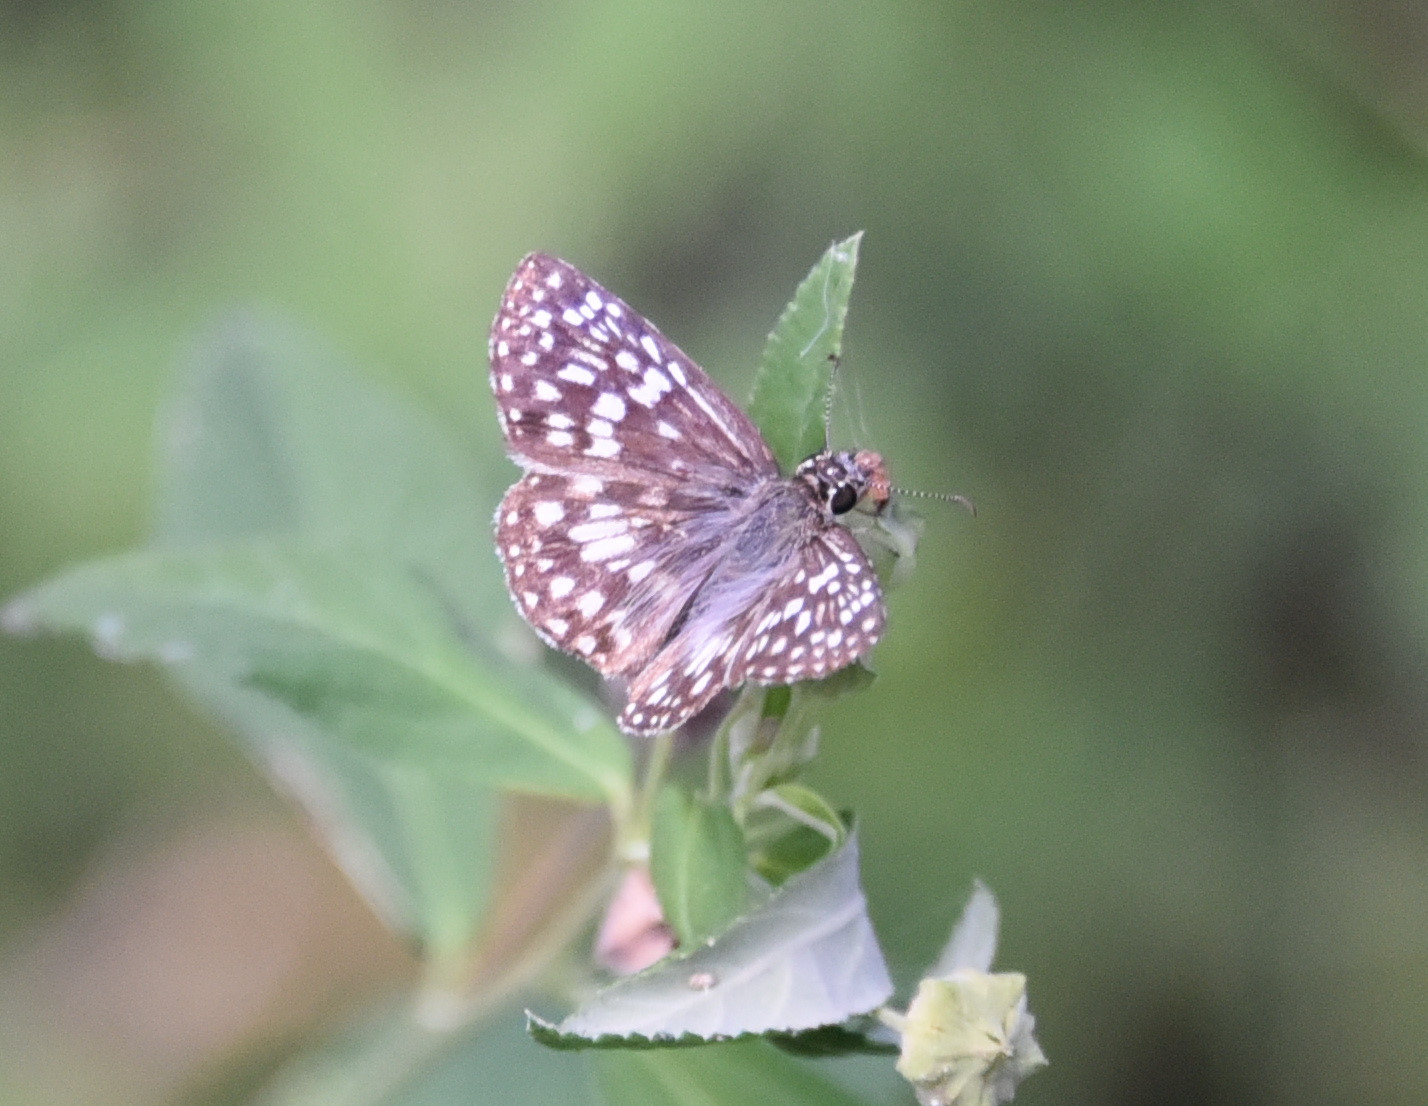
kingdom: Animalia
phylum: Arthropoda
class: Insecta
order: Lepidoptera
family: Hesperiidae
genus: Pyrgus
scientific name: Pyrgus oileus
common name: Tropical checkered-skipper
